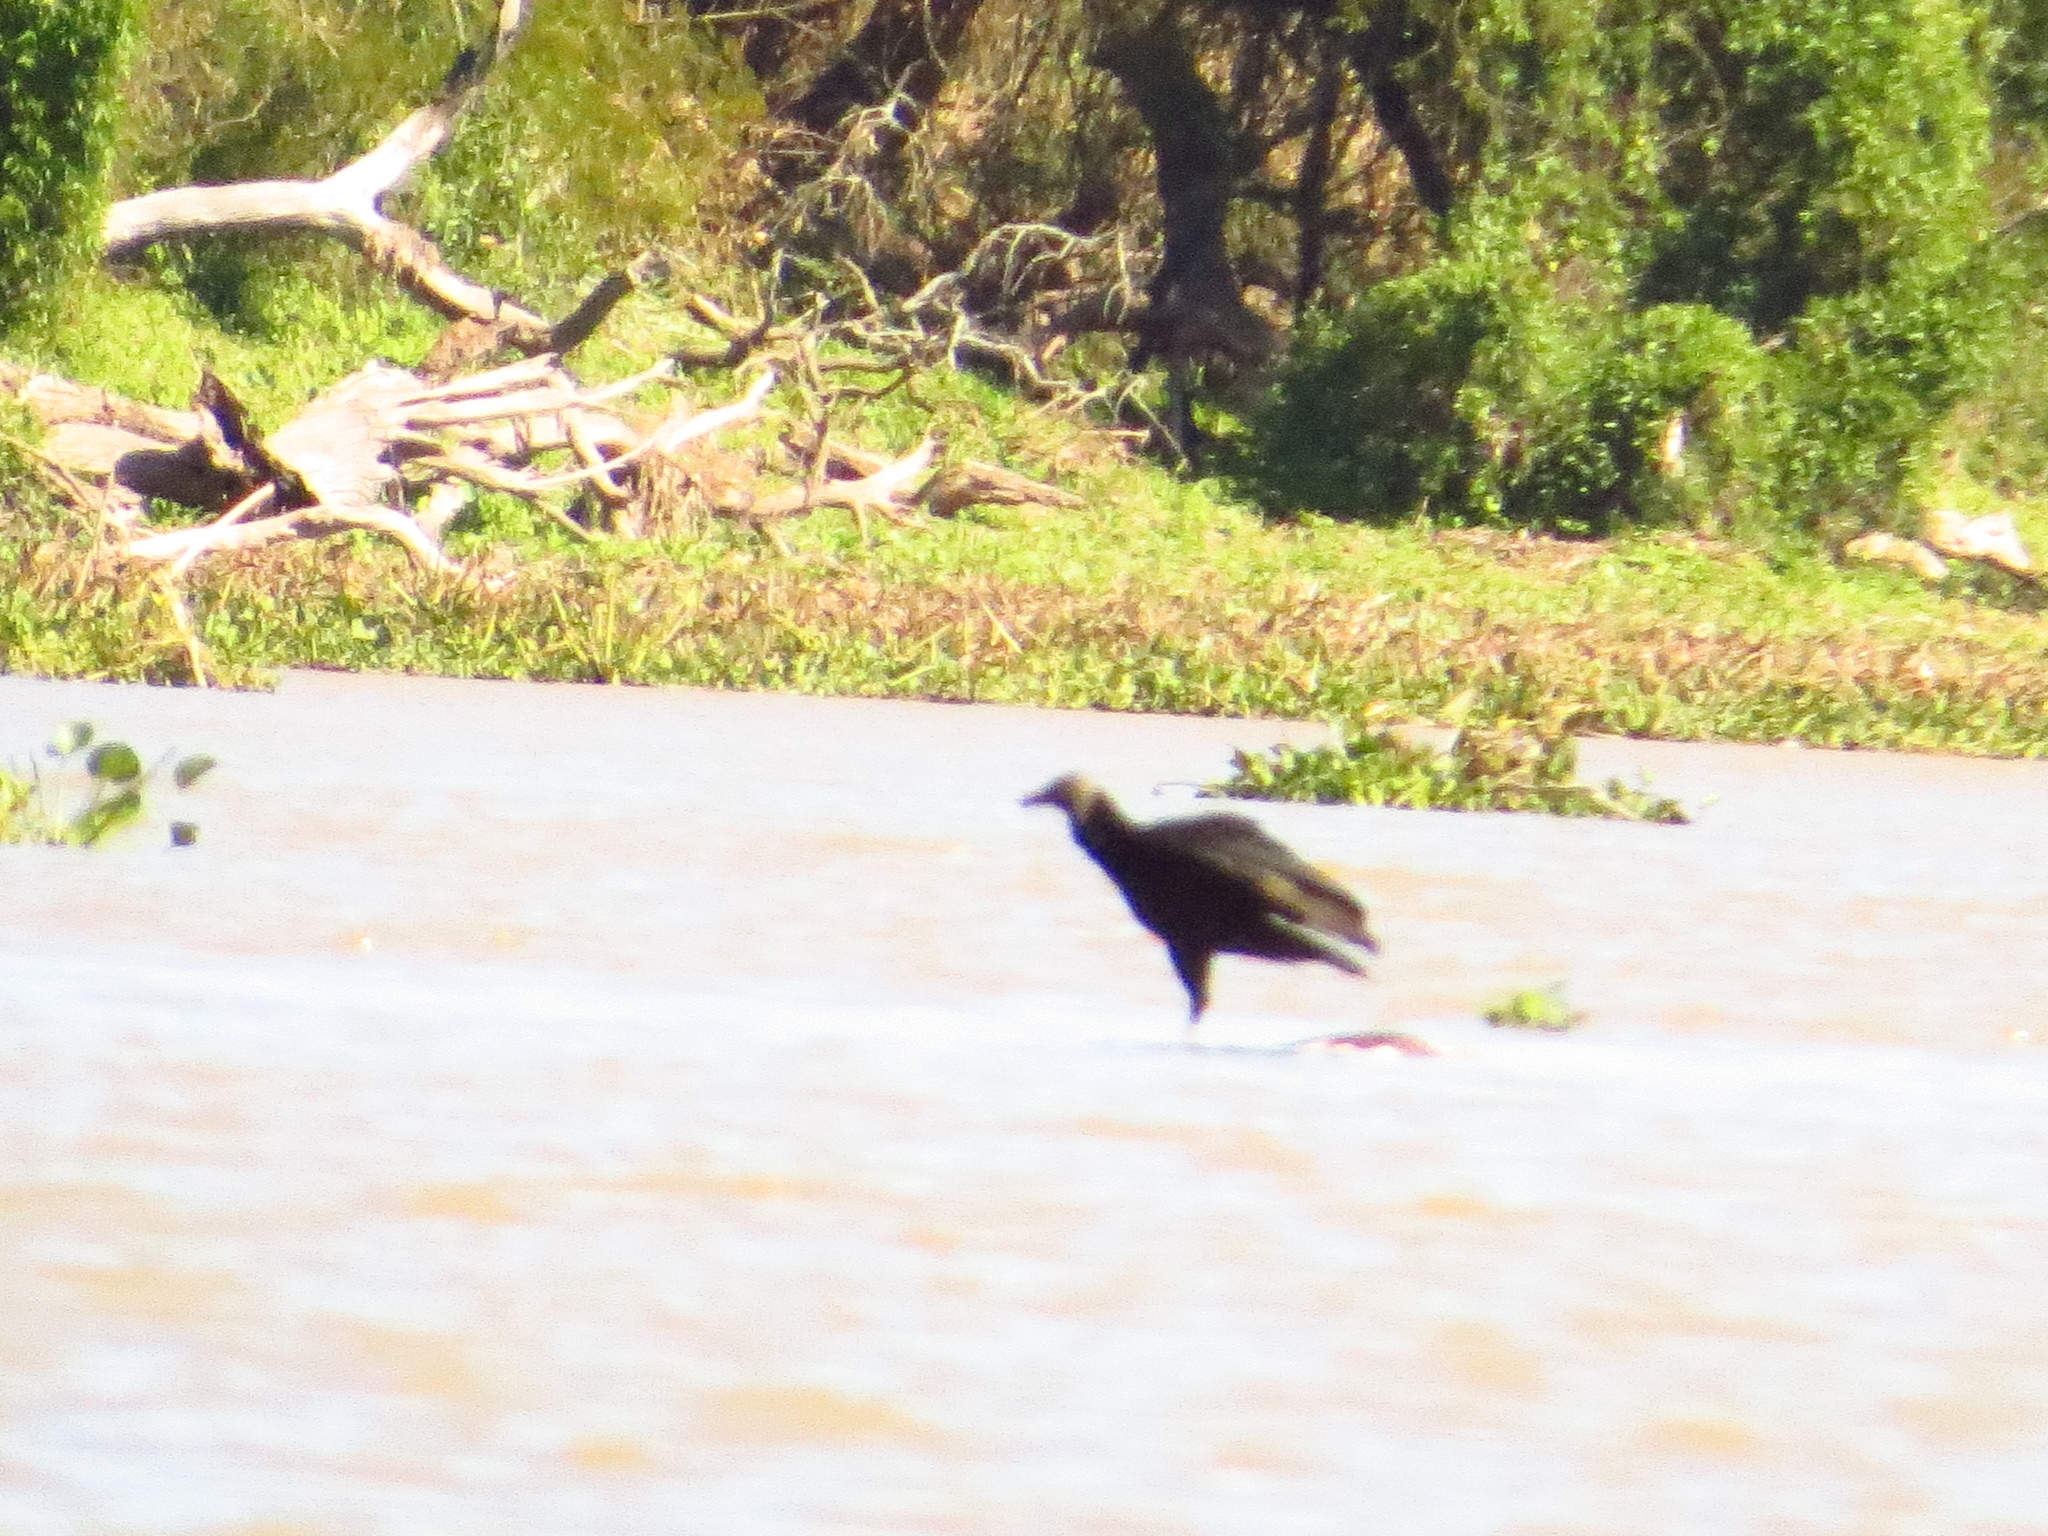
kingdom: Animalia
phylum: Chordata
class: Aves
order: Accipitriformes
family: Cathartidae
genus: Coragyps
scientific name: Coragyps atratus
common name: Black vulture
